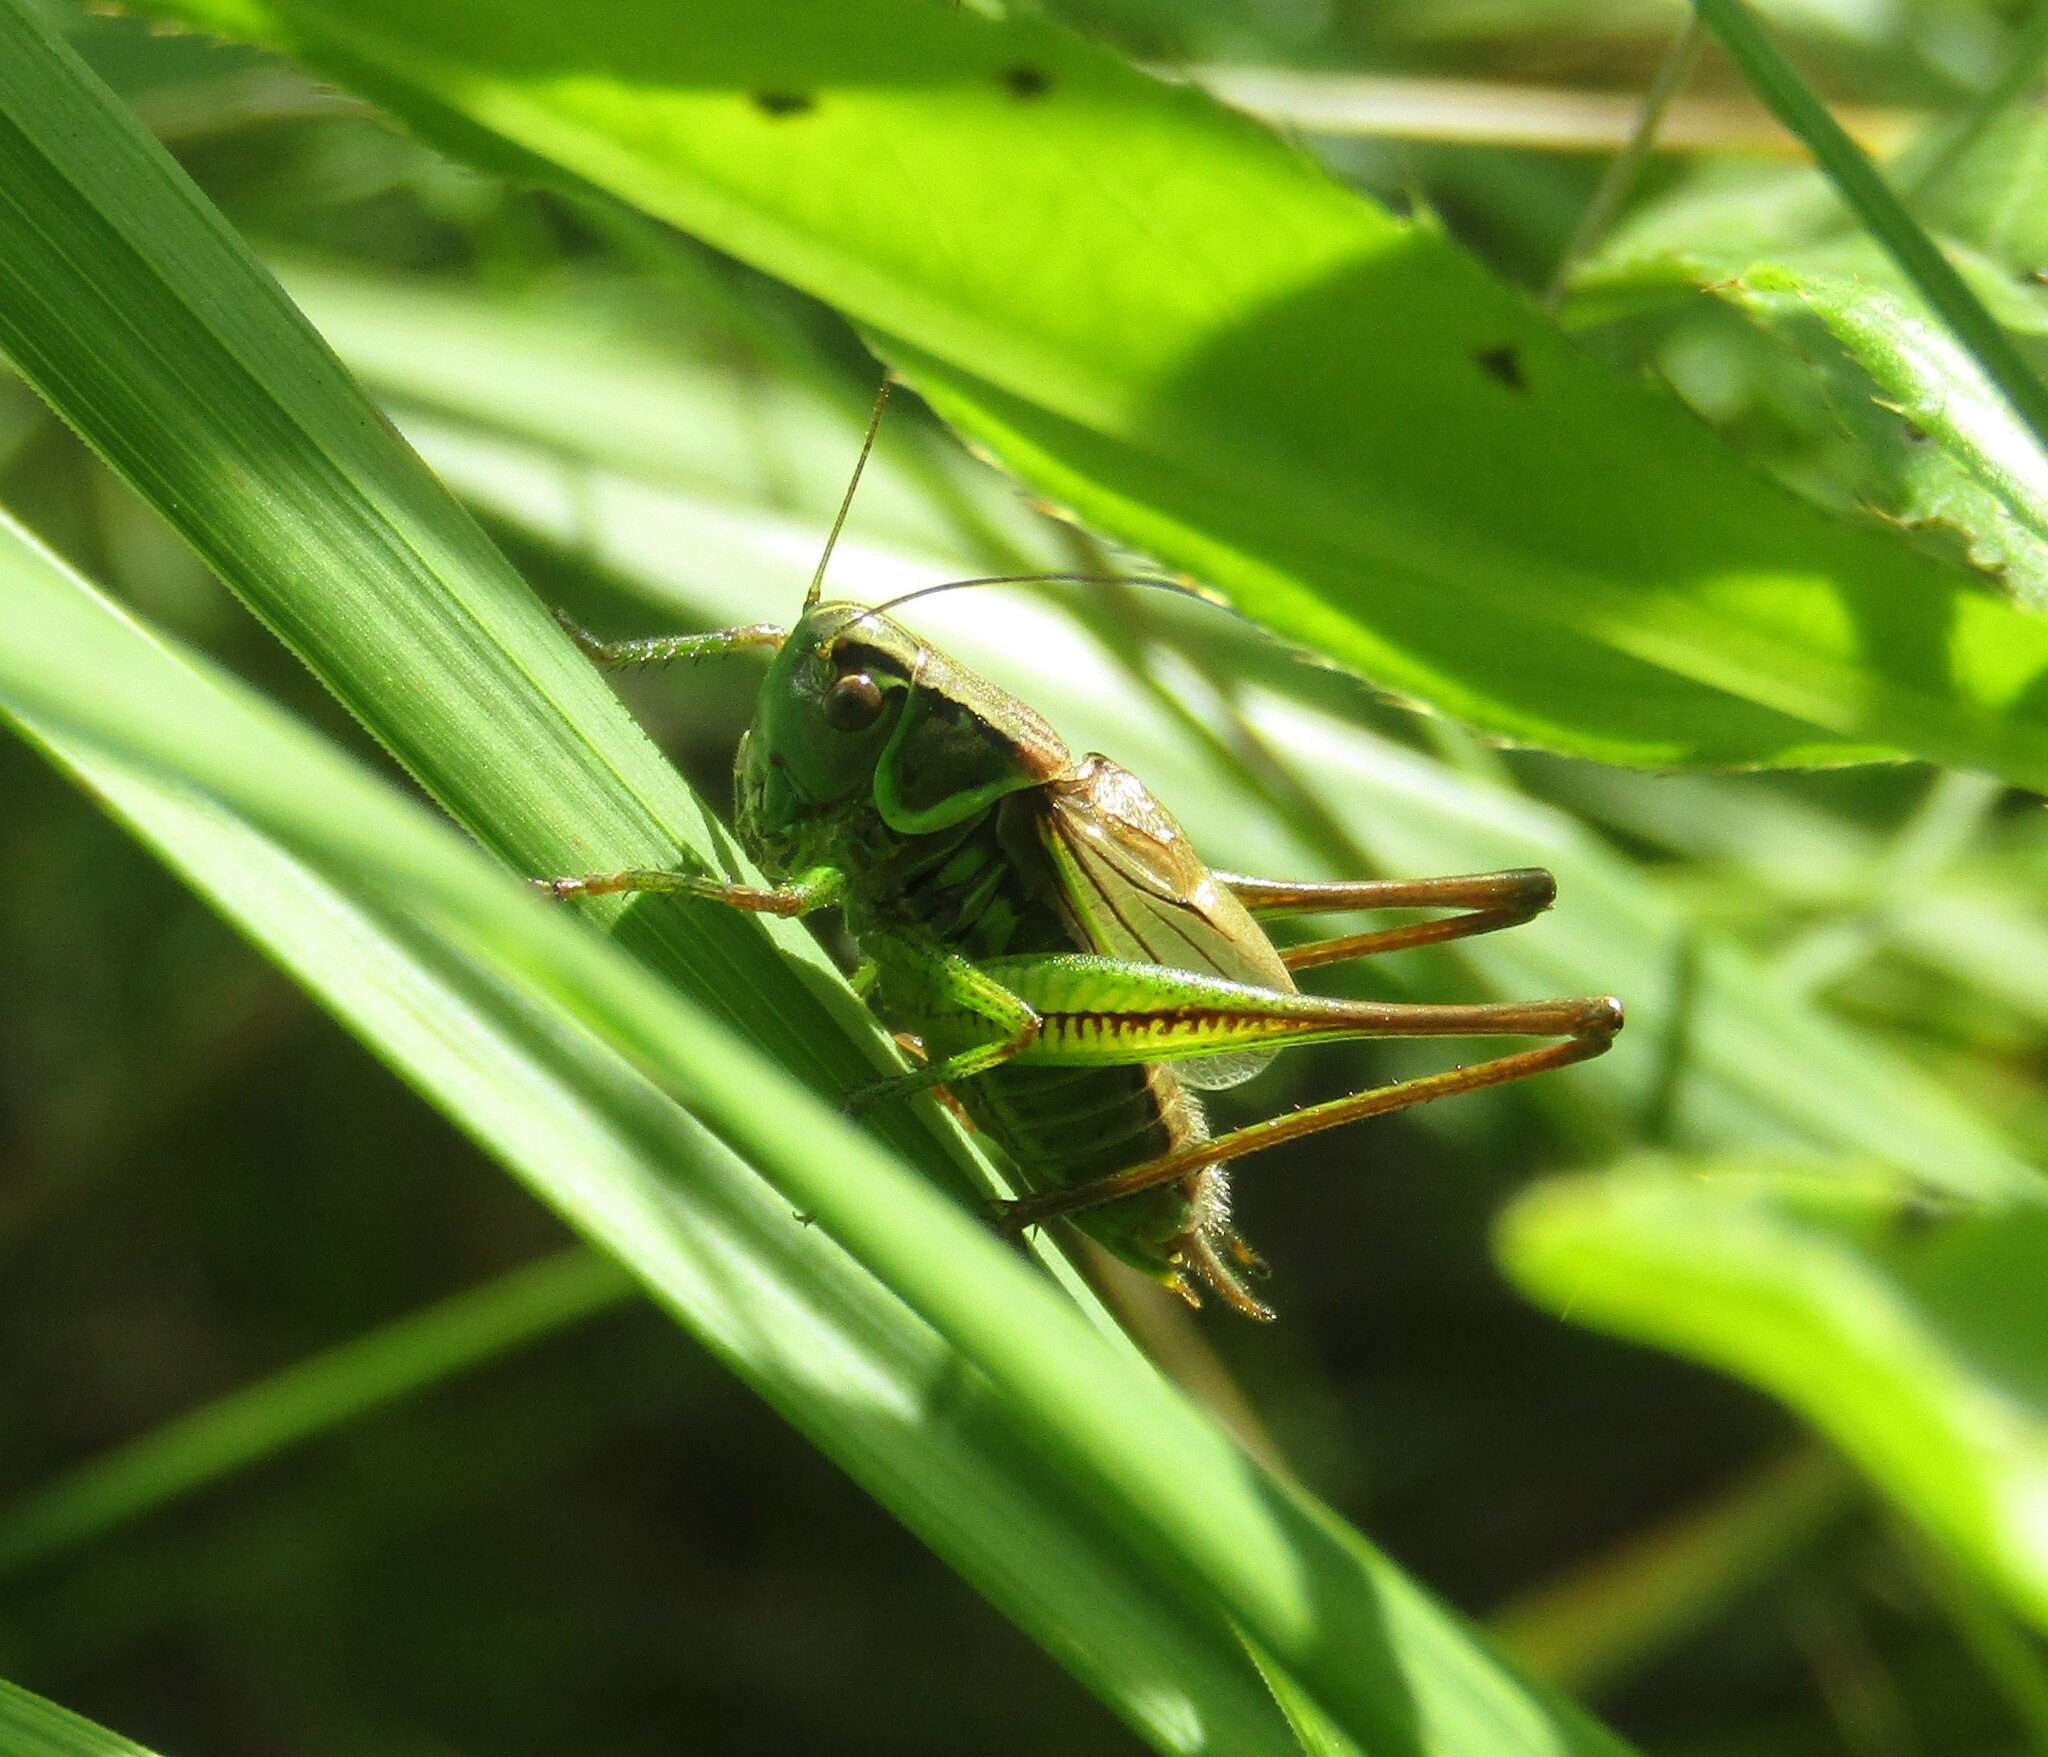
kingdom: Animalia
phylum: Arthropoda
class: Insecta
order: Orthoptera
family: Tettigoniidae
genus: Roeseliana
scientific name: Roeseliana roeselii
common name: Roesel's bush cricket
